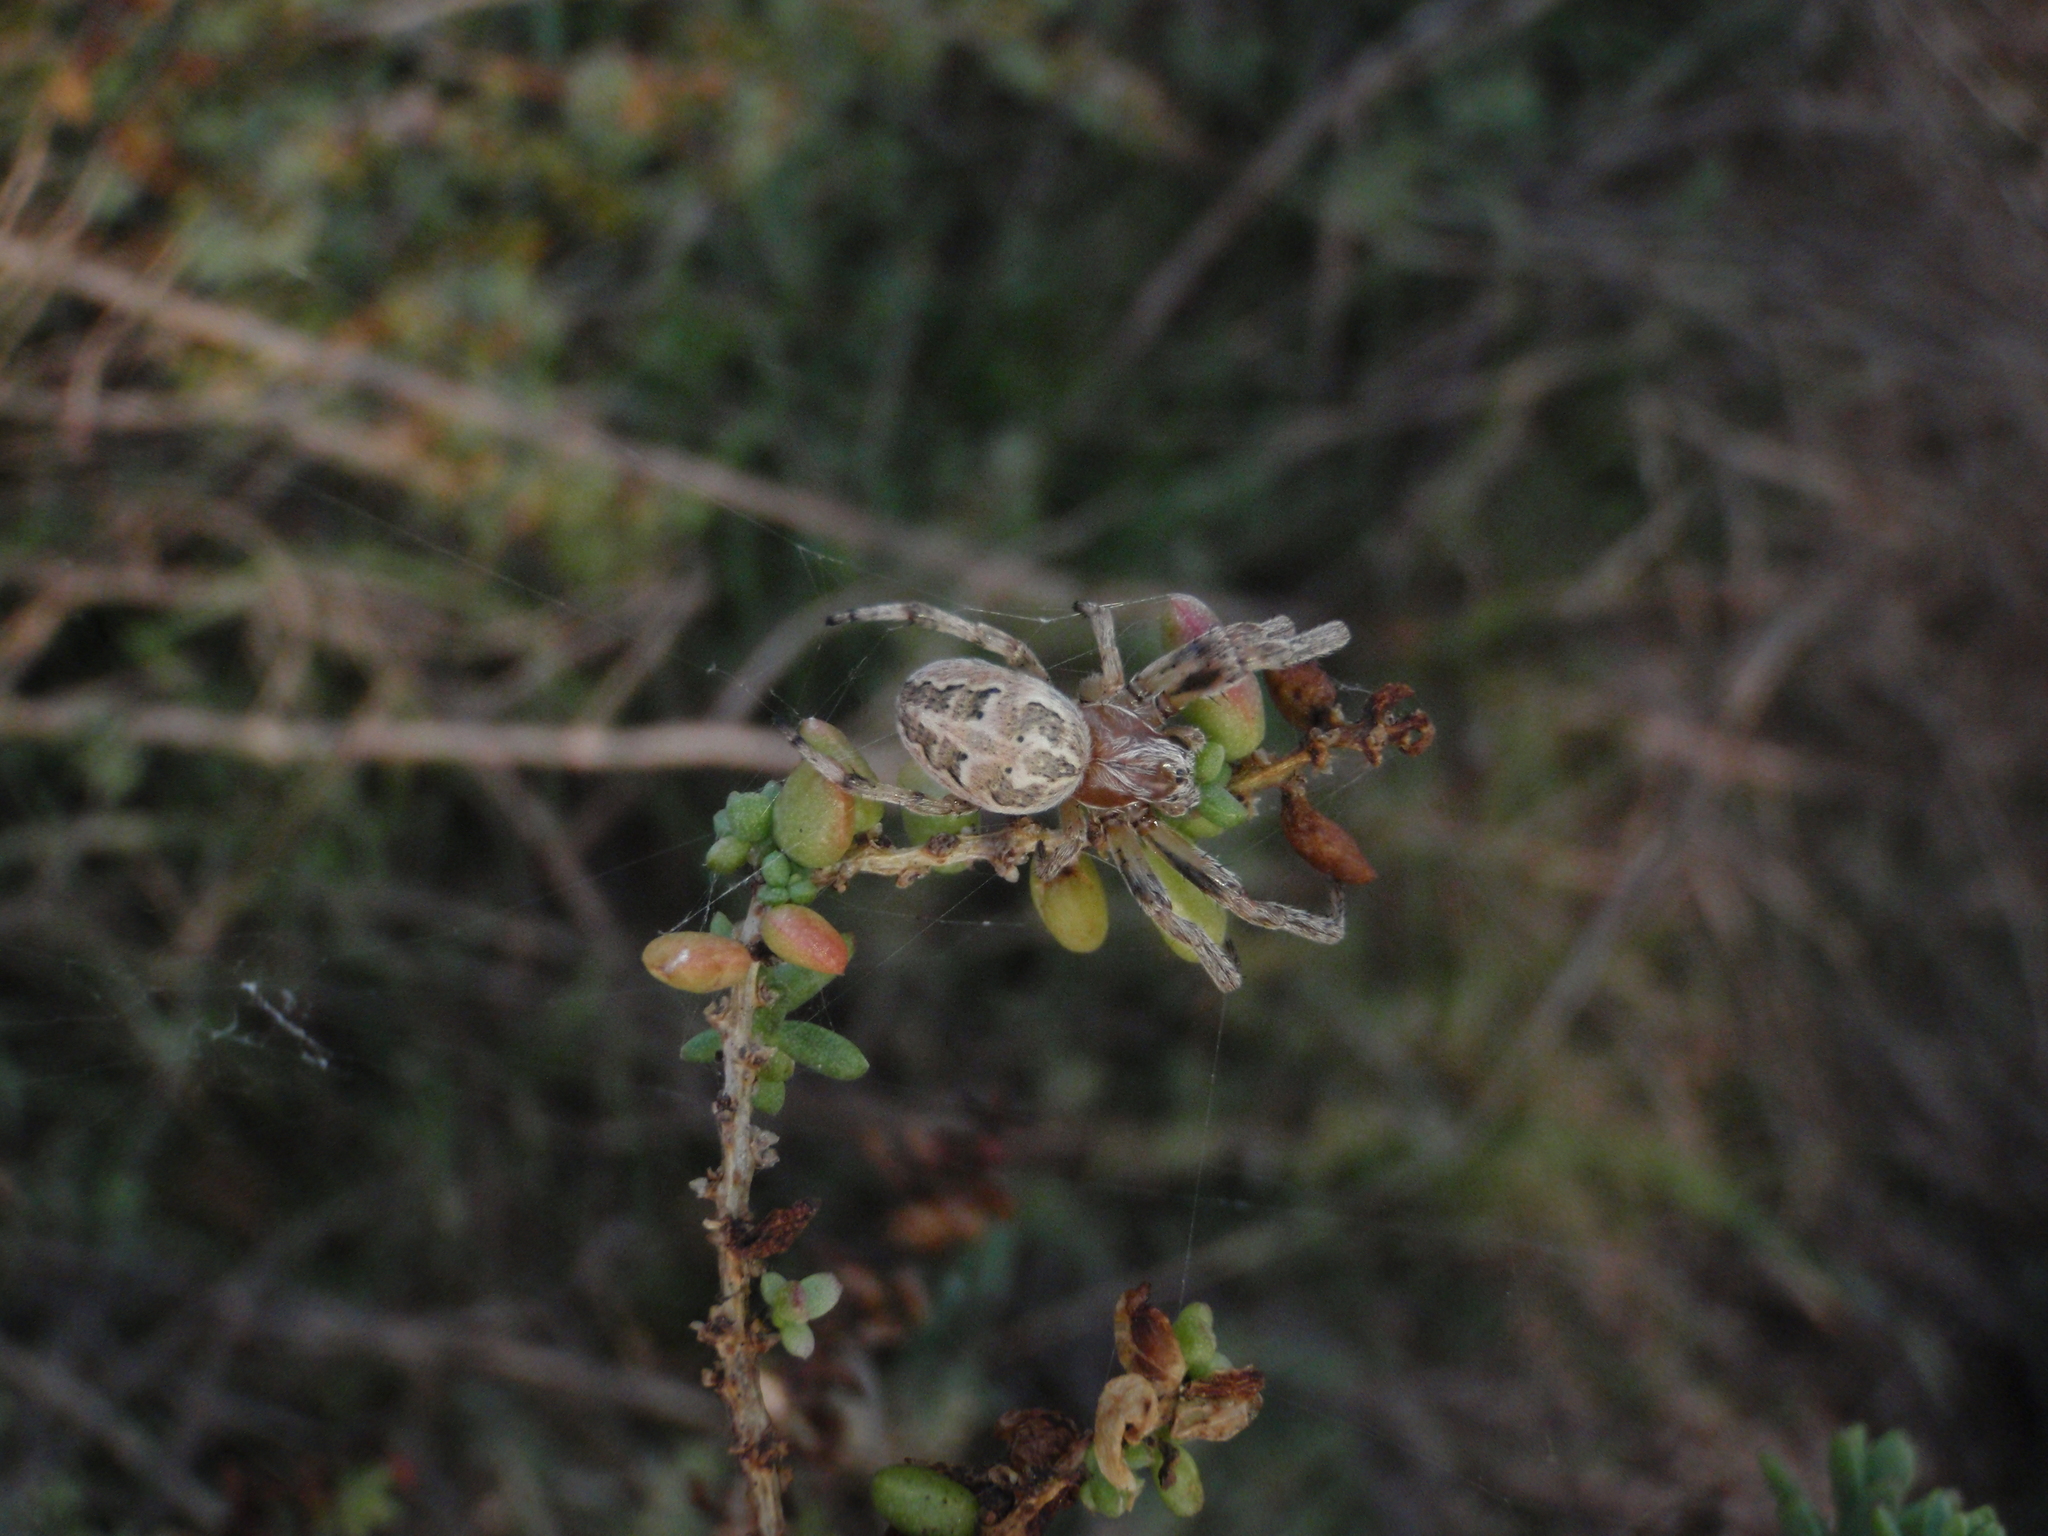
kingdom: Animalia
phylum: Arthropoda
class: Arachnida
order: Araneae
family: Araneidae
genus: Larinioides
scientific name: Larinioides cornutus
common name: Furrow orbweaver
